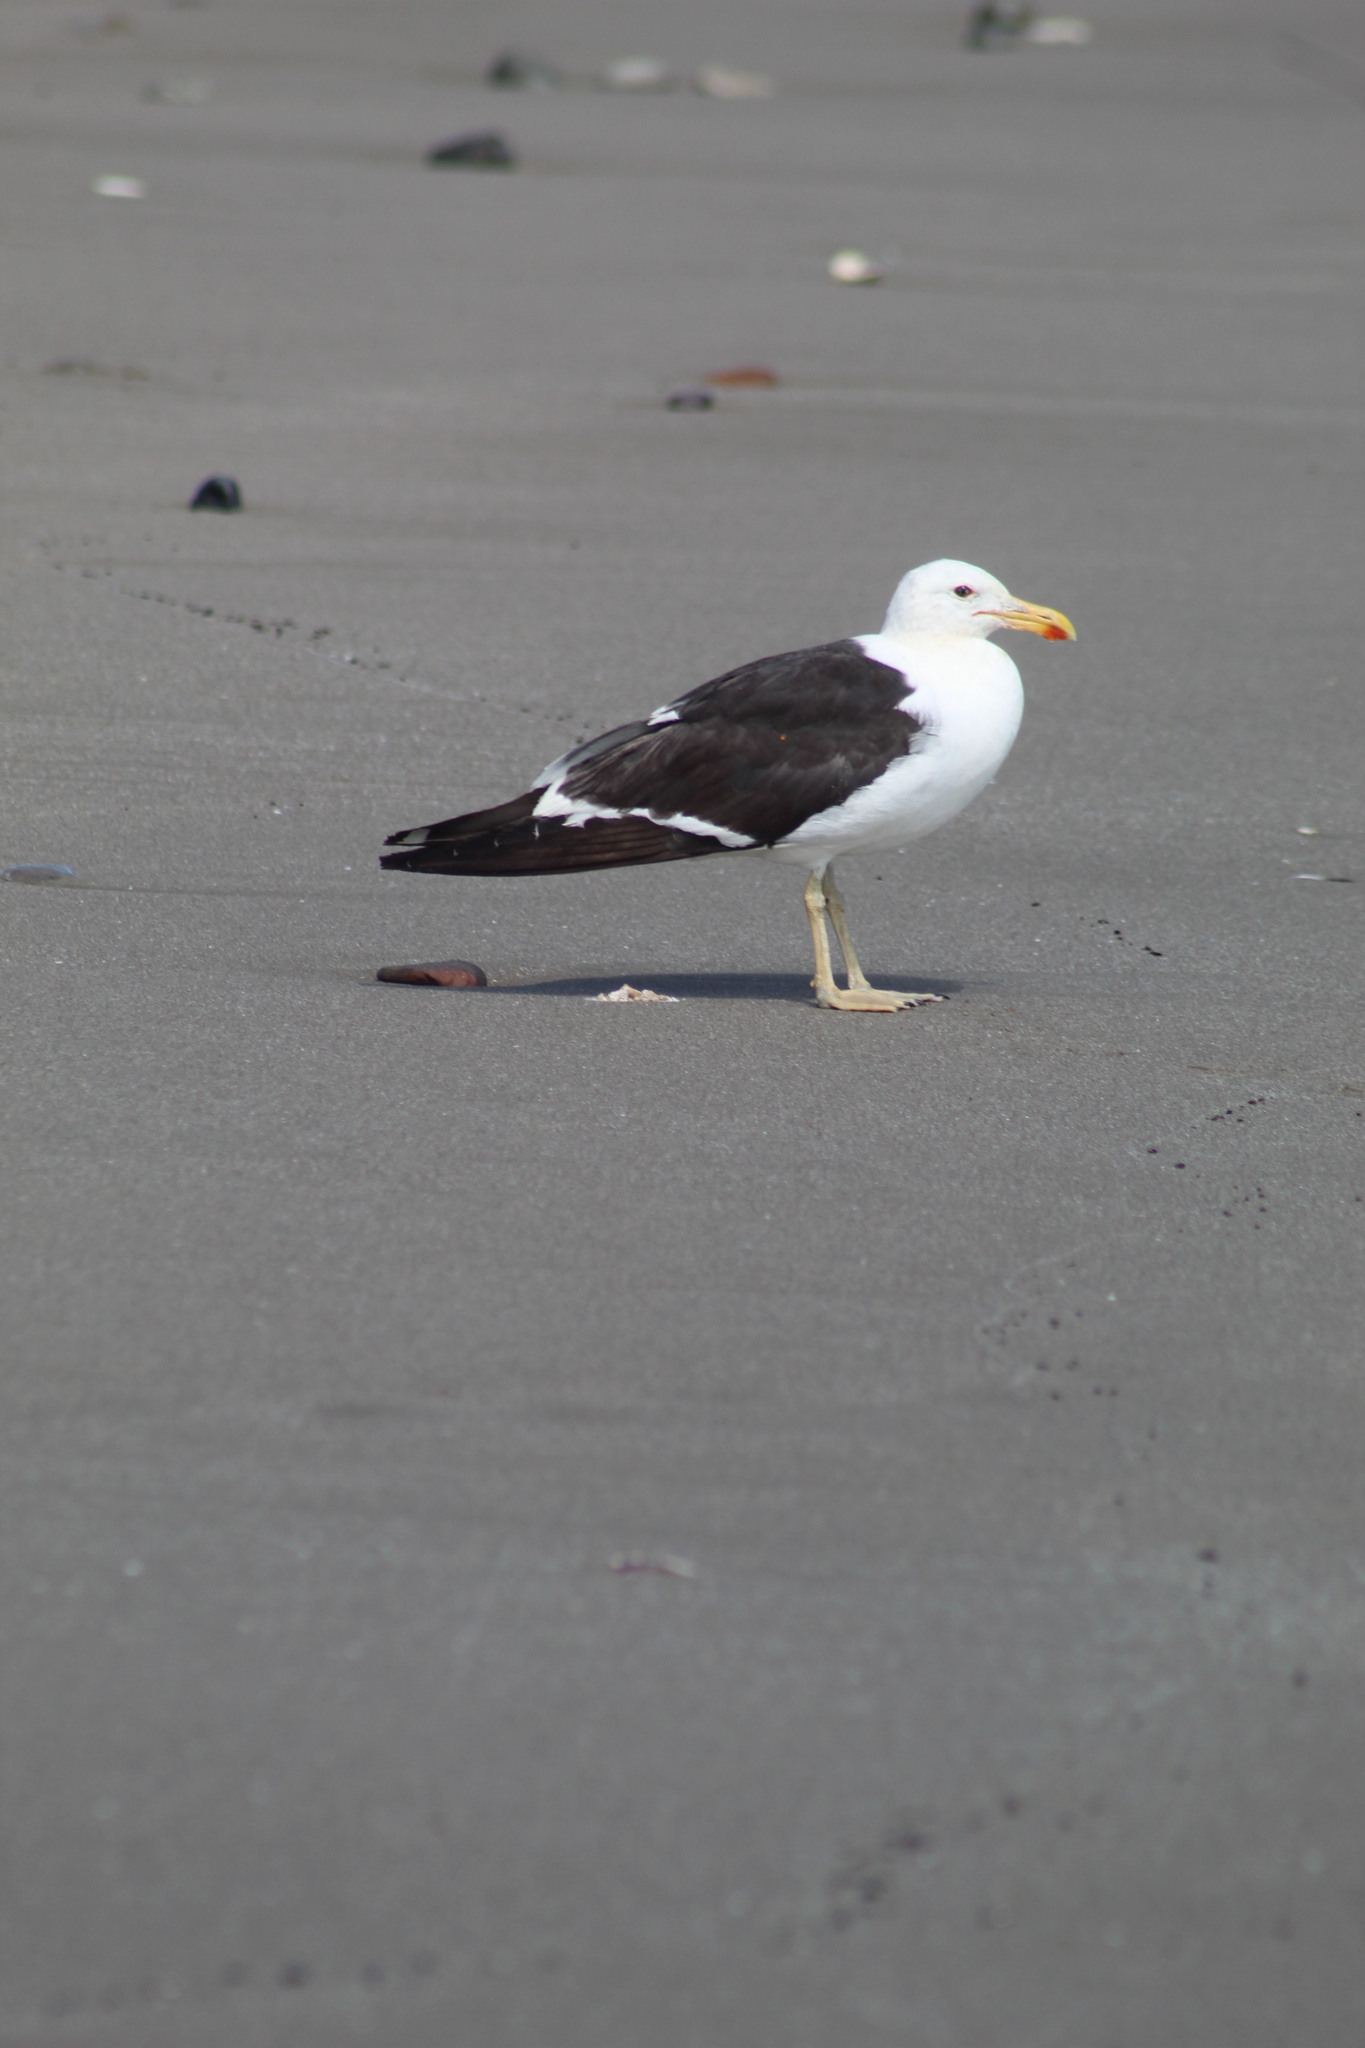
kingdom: Animalia
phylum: Chordata
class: Aves
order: Charadriiformes
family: Laridae
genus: Larus
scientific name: Larus dominicanus
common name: Kelp gull
